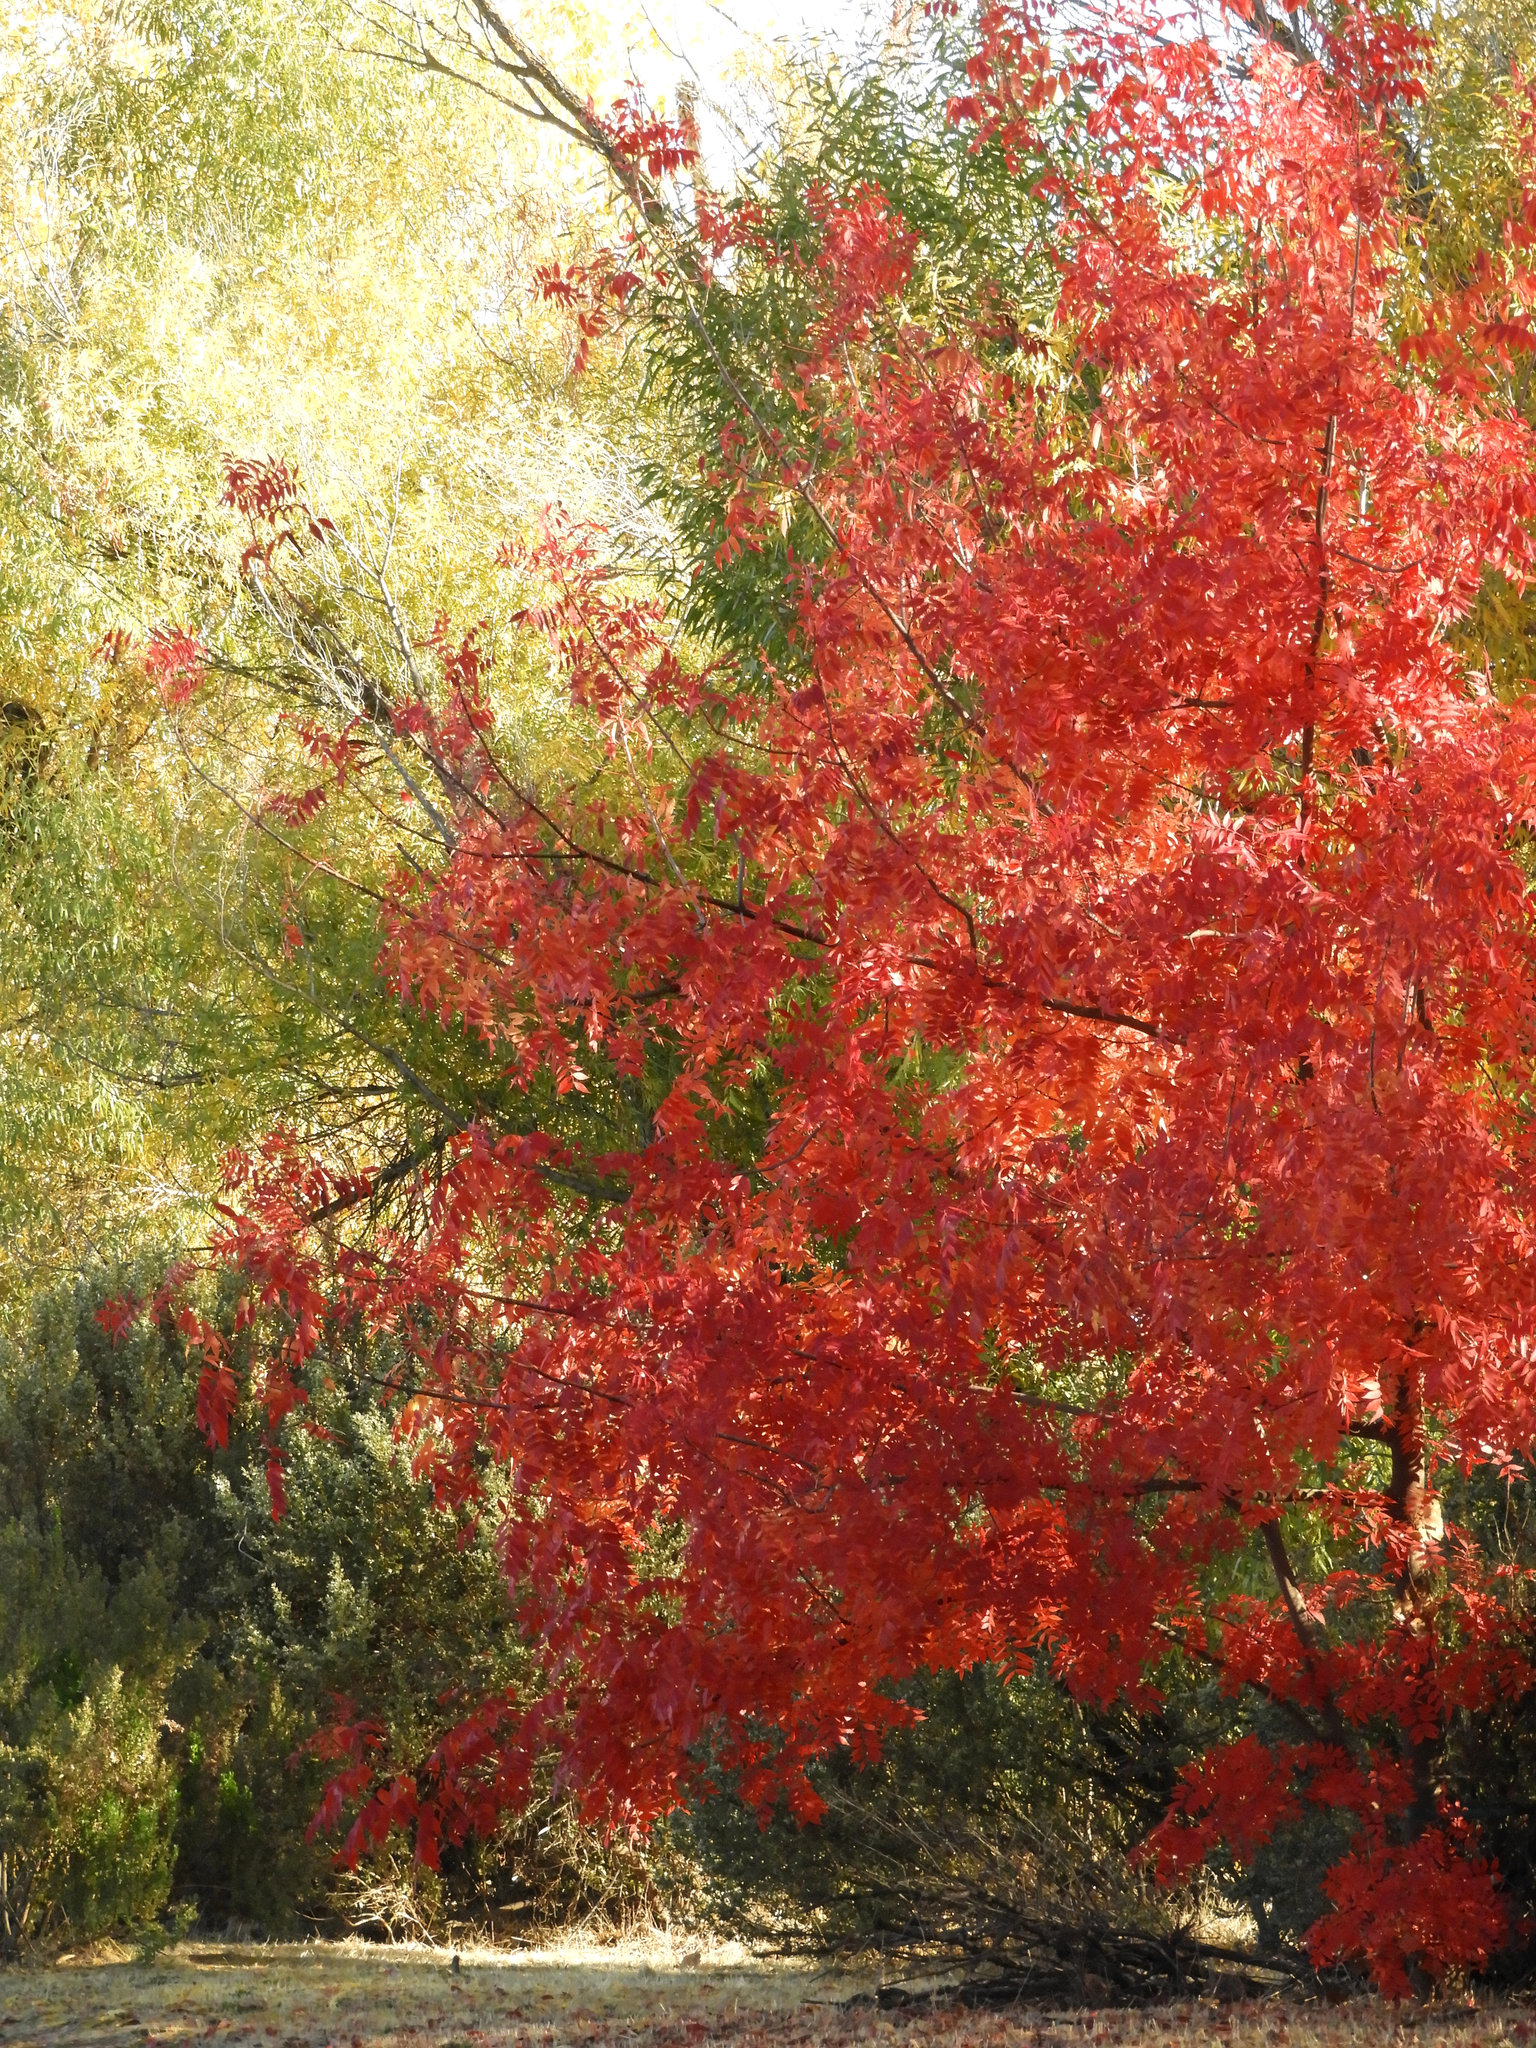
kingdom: Plantae
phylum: Tracheophyta
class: Magnoliopsida
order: Sapindales
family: Anacardiaceae
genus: Pistacia
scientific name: Pistacia chinensis
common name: Chinese pistache
